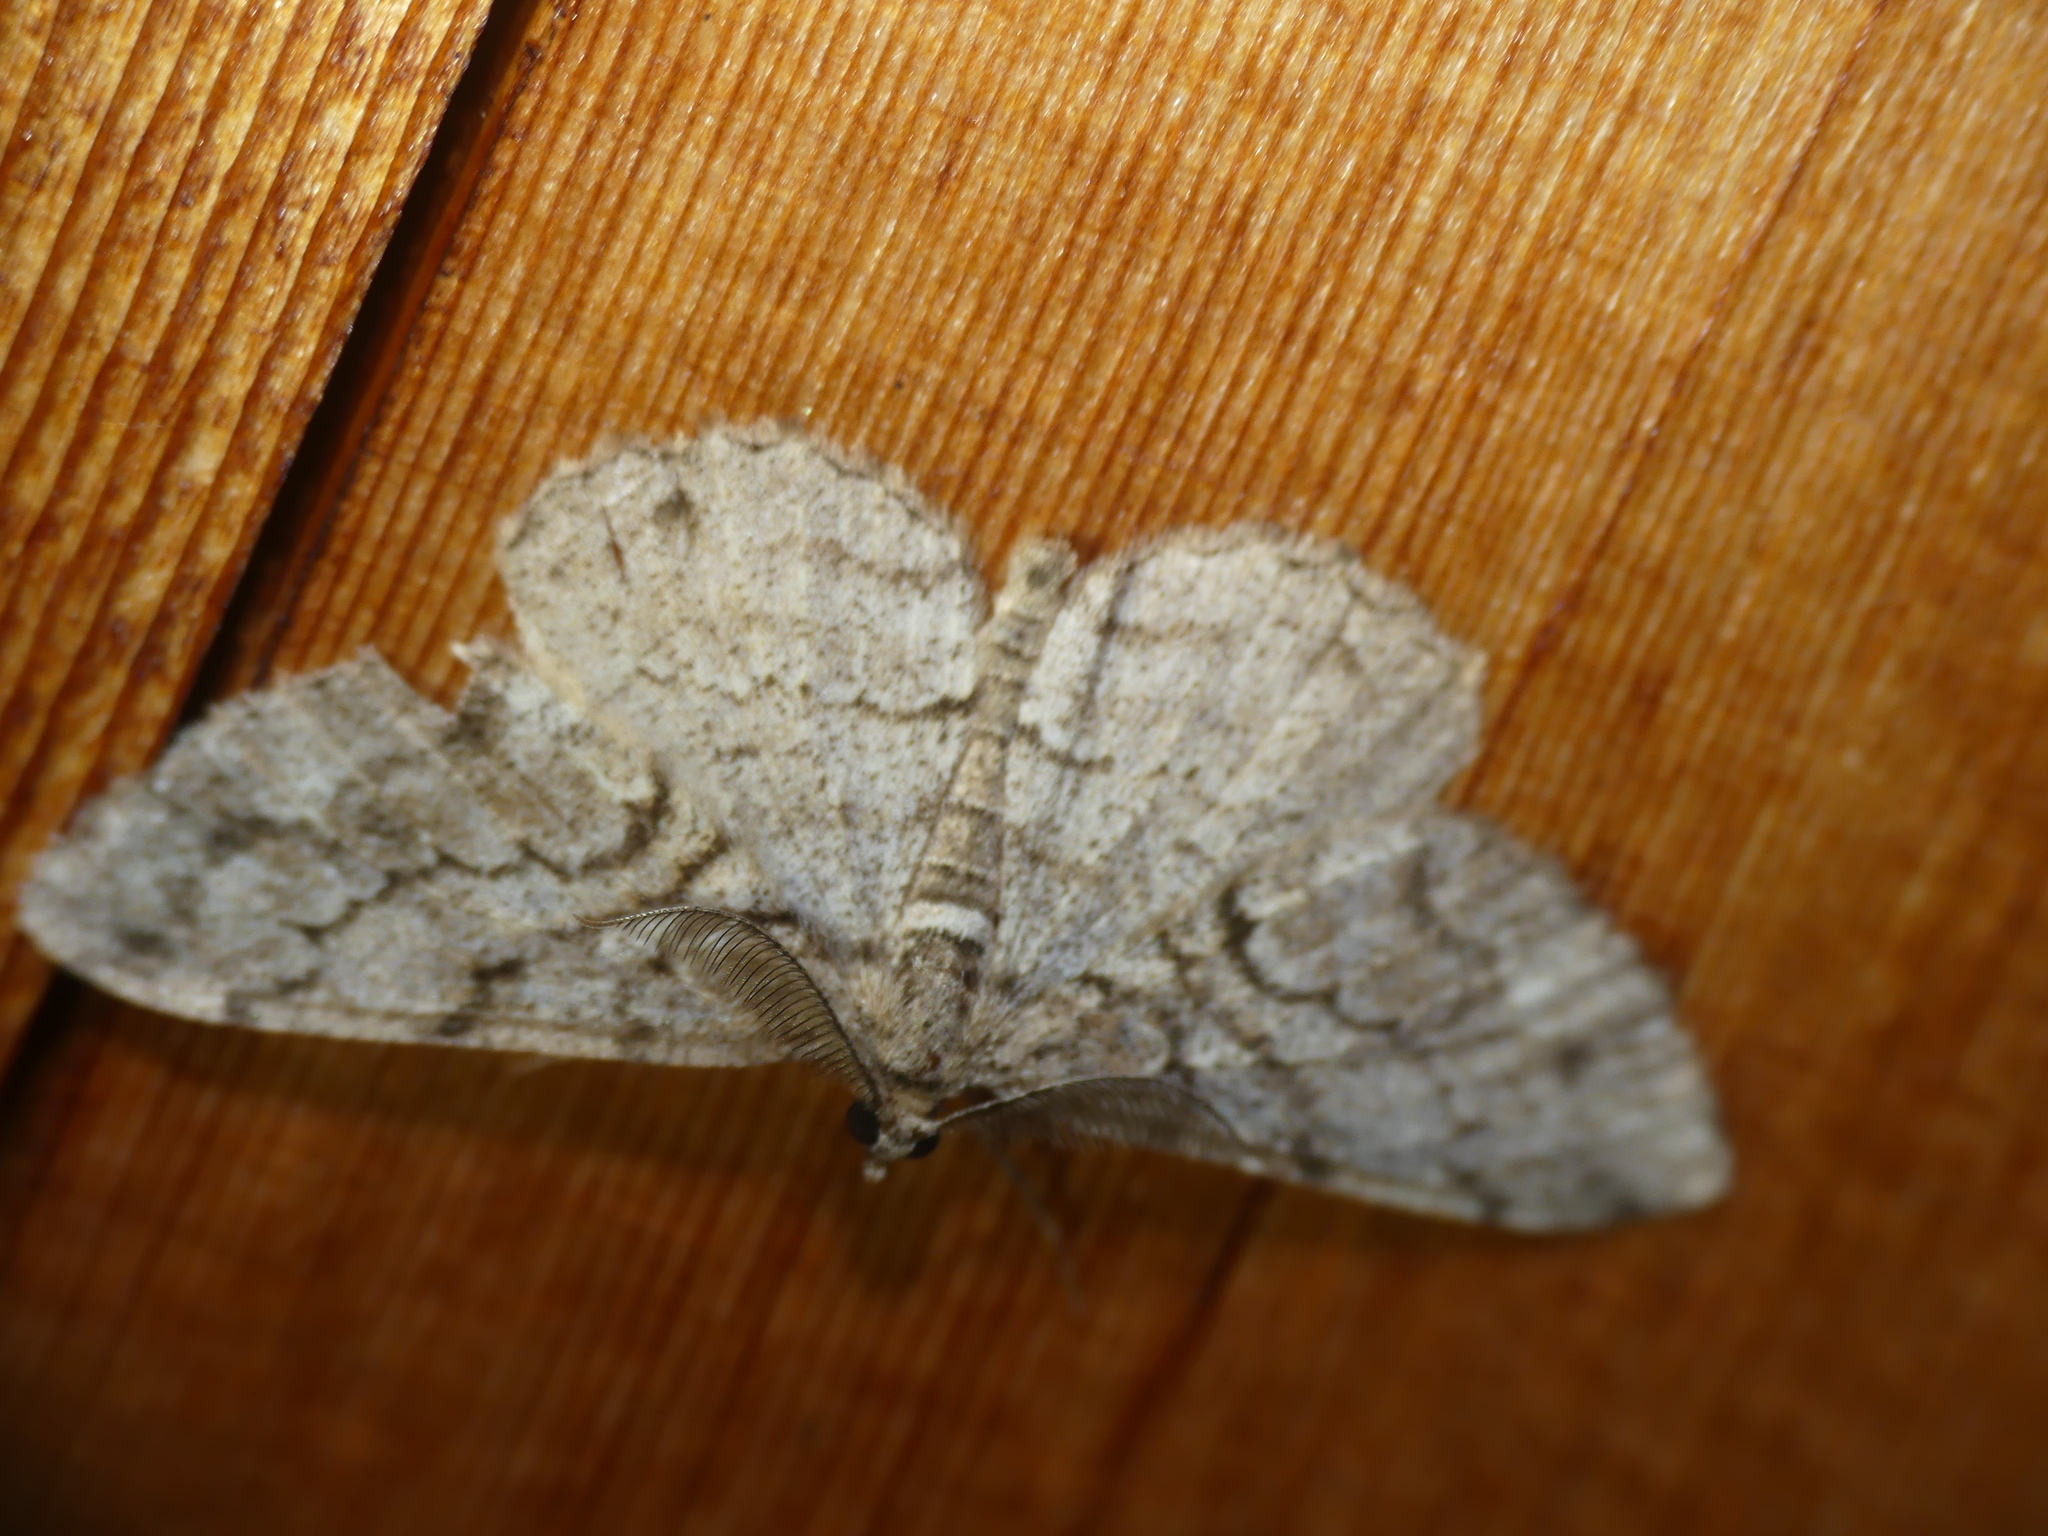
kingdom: Animalia
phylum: Arthropoda
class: Insecta
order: Lepidoptera
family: Geometridae
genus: Peribatodes
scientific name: Peribatodes secundaria
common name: Feathered beauty
